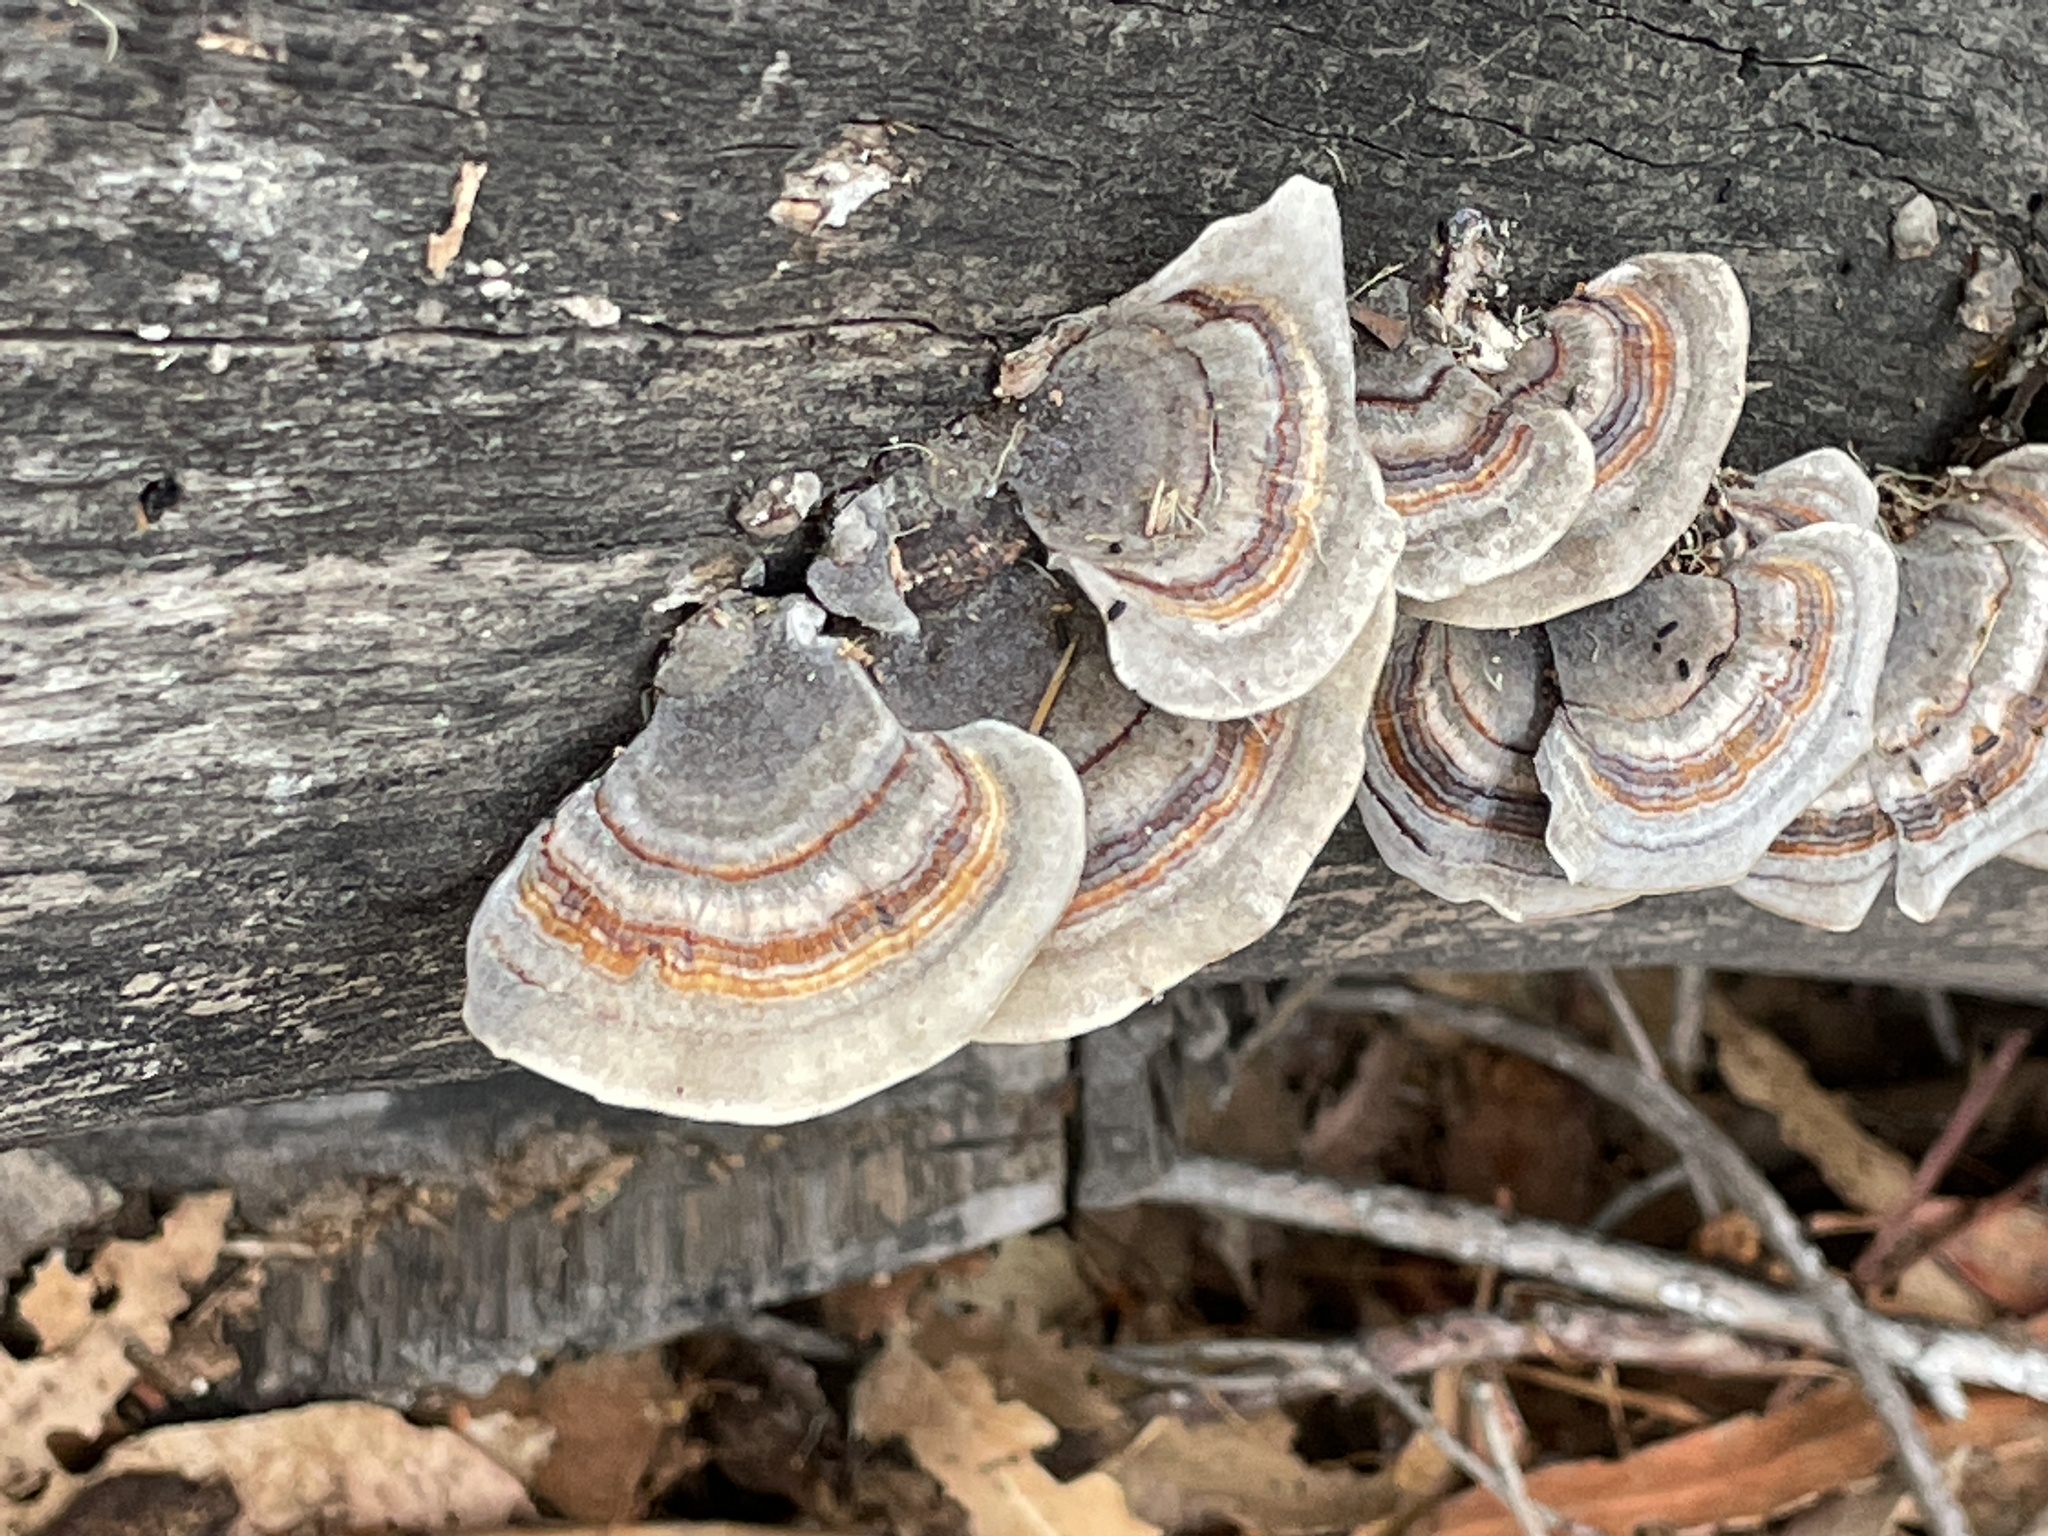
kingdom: Fungi
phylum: Basidiomycota
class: Agaricomycetes
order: Polyporales
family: Polyporaceae
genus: Trametes
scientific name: Trametes versicolor
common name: Turkeytail
